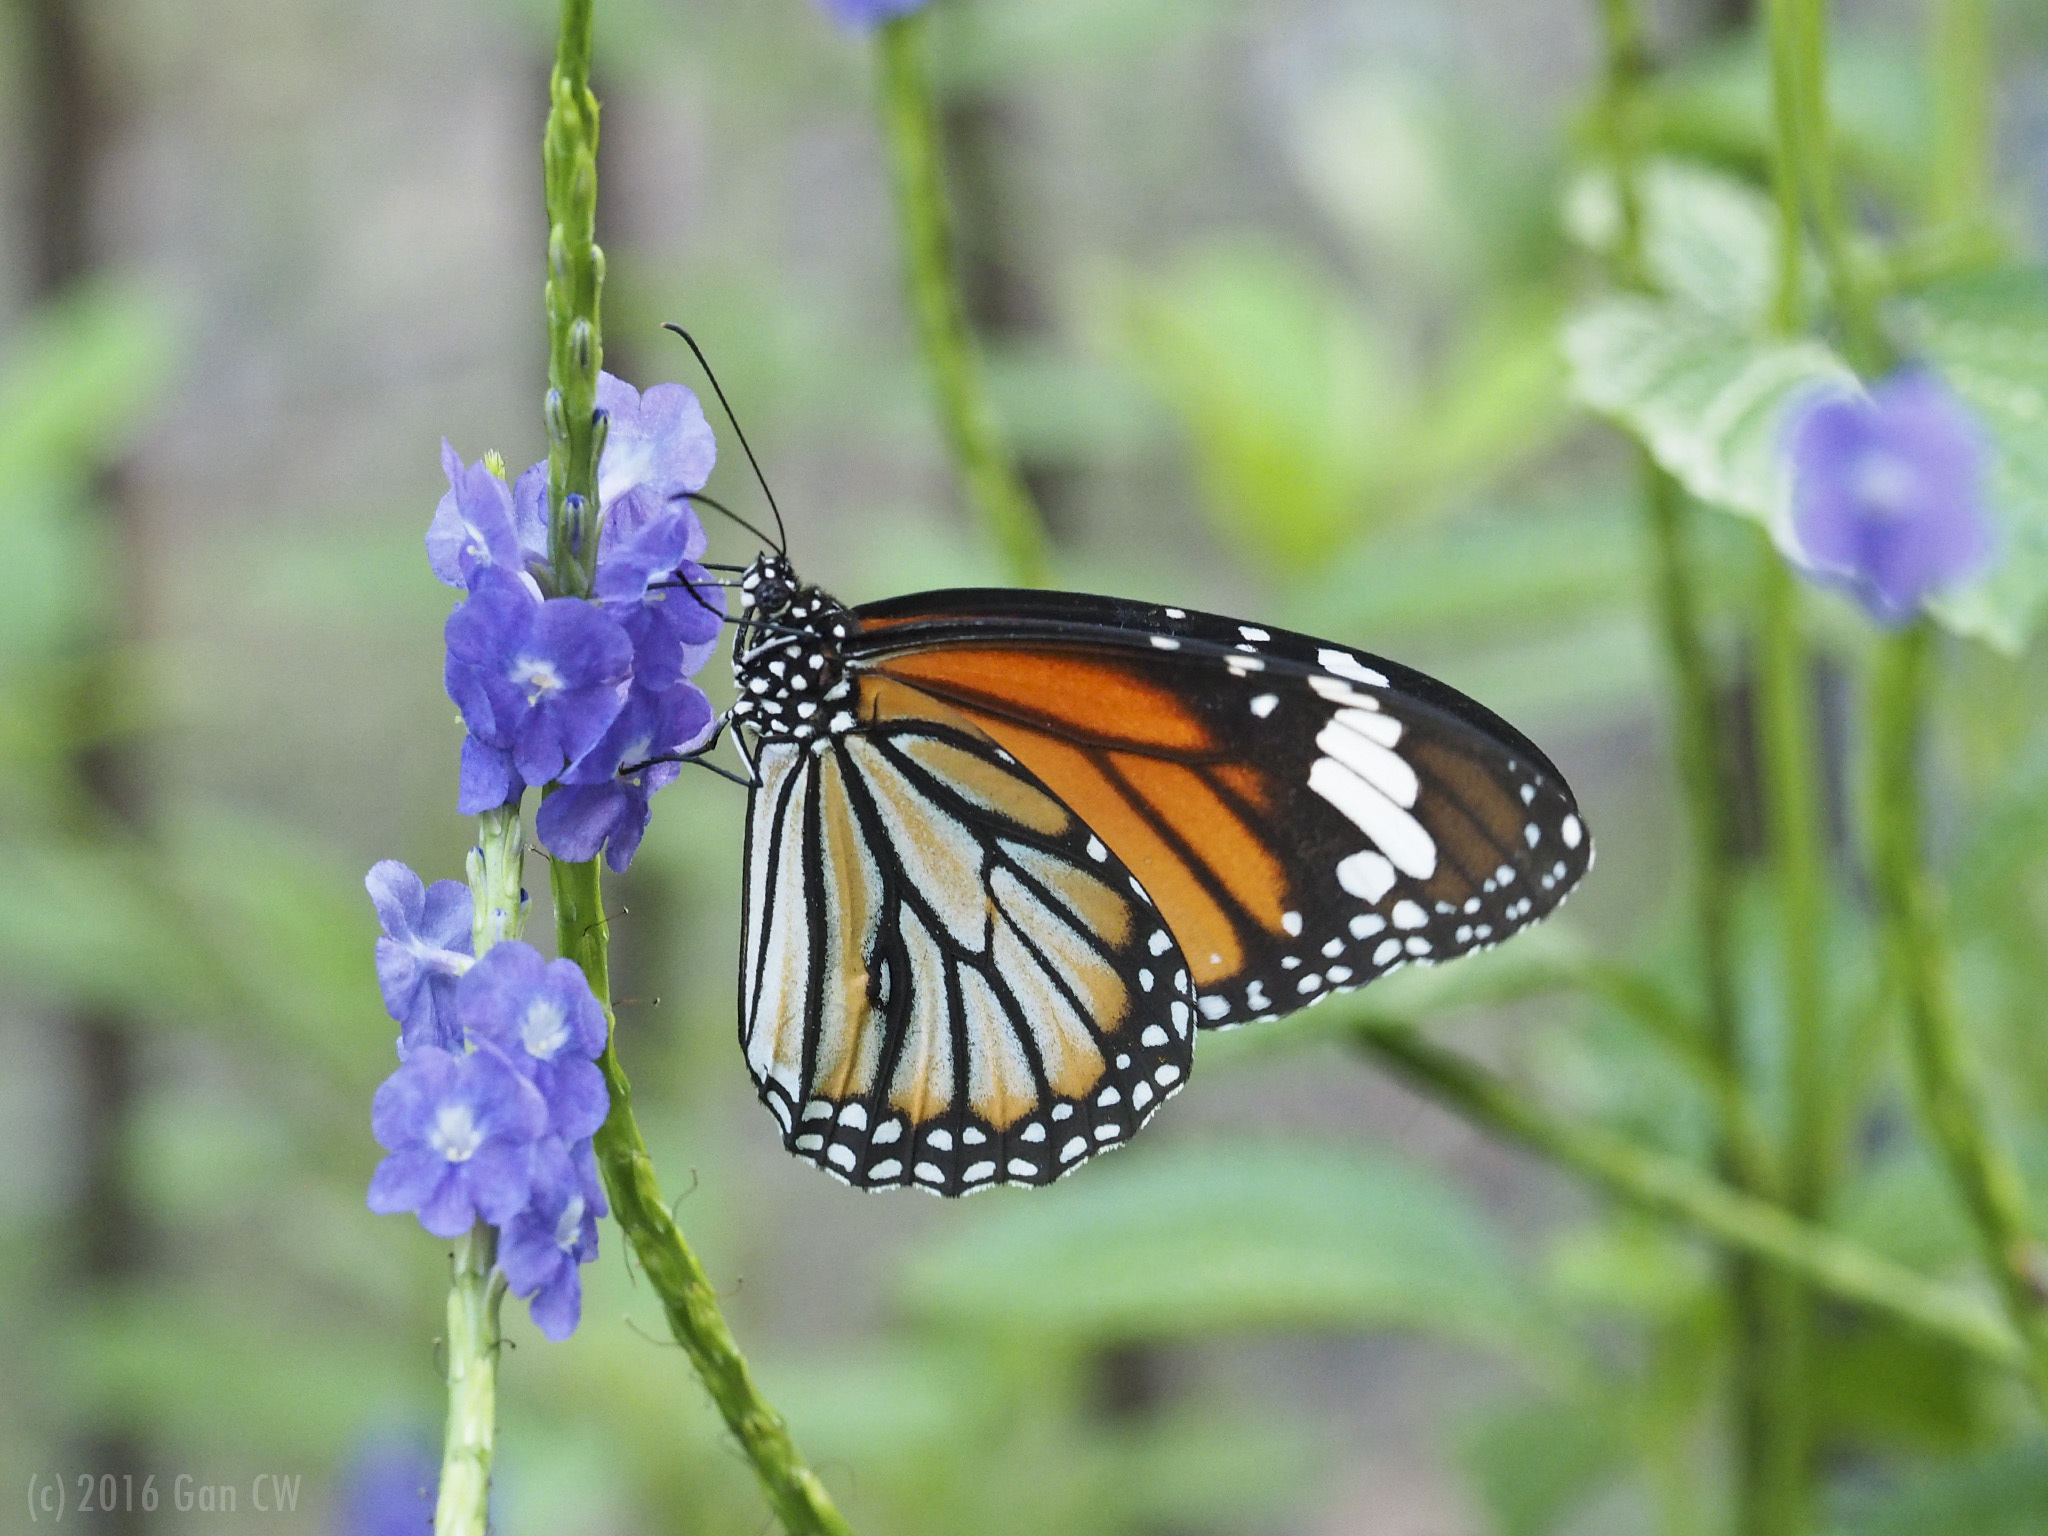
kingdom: Animalia
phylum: Arthropoda
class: Insecta
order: Lepidoptera
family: Nymphalidae
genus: Danaus
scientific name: Danaus genutia
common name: Common tiger butterfly
